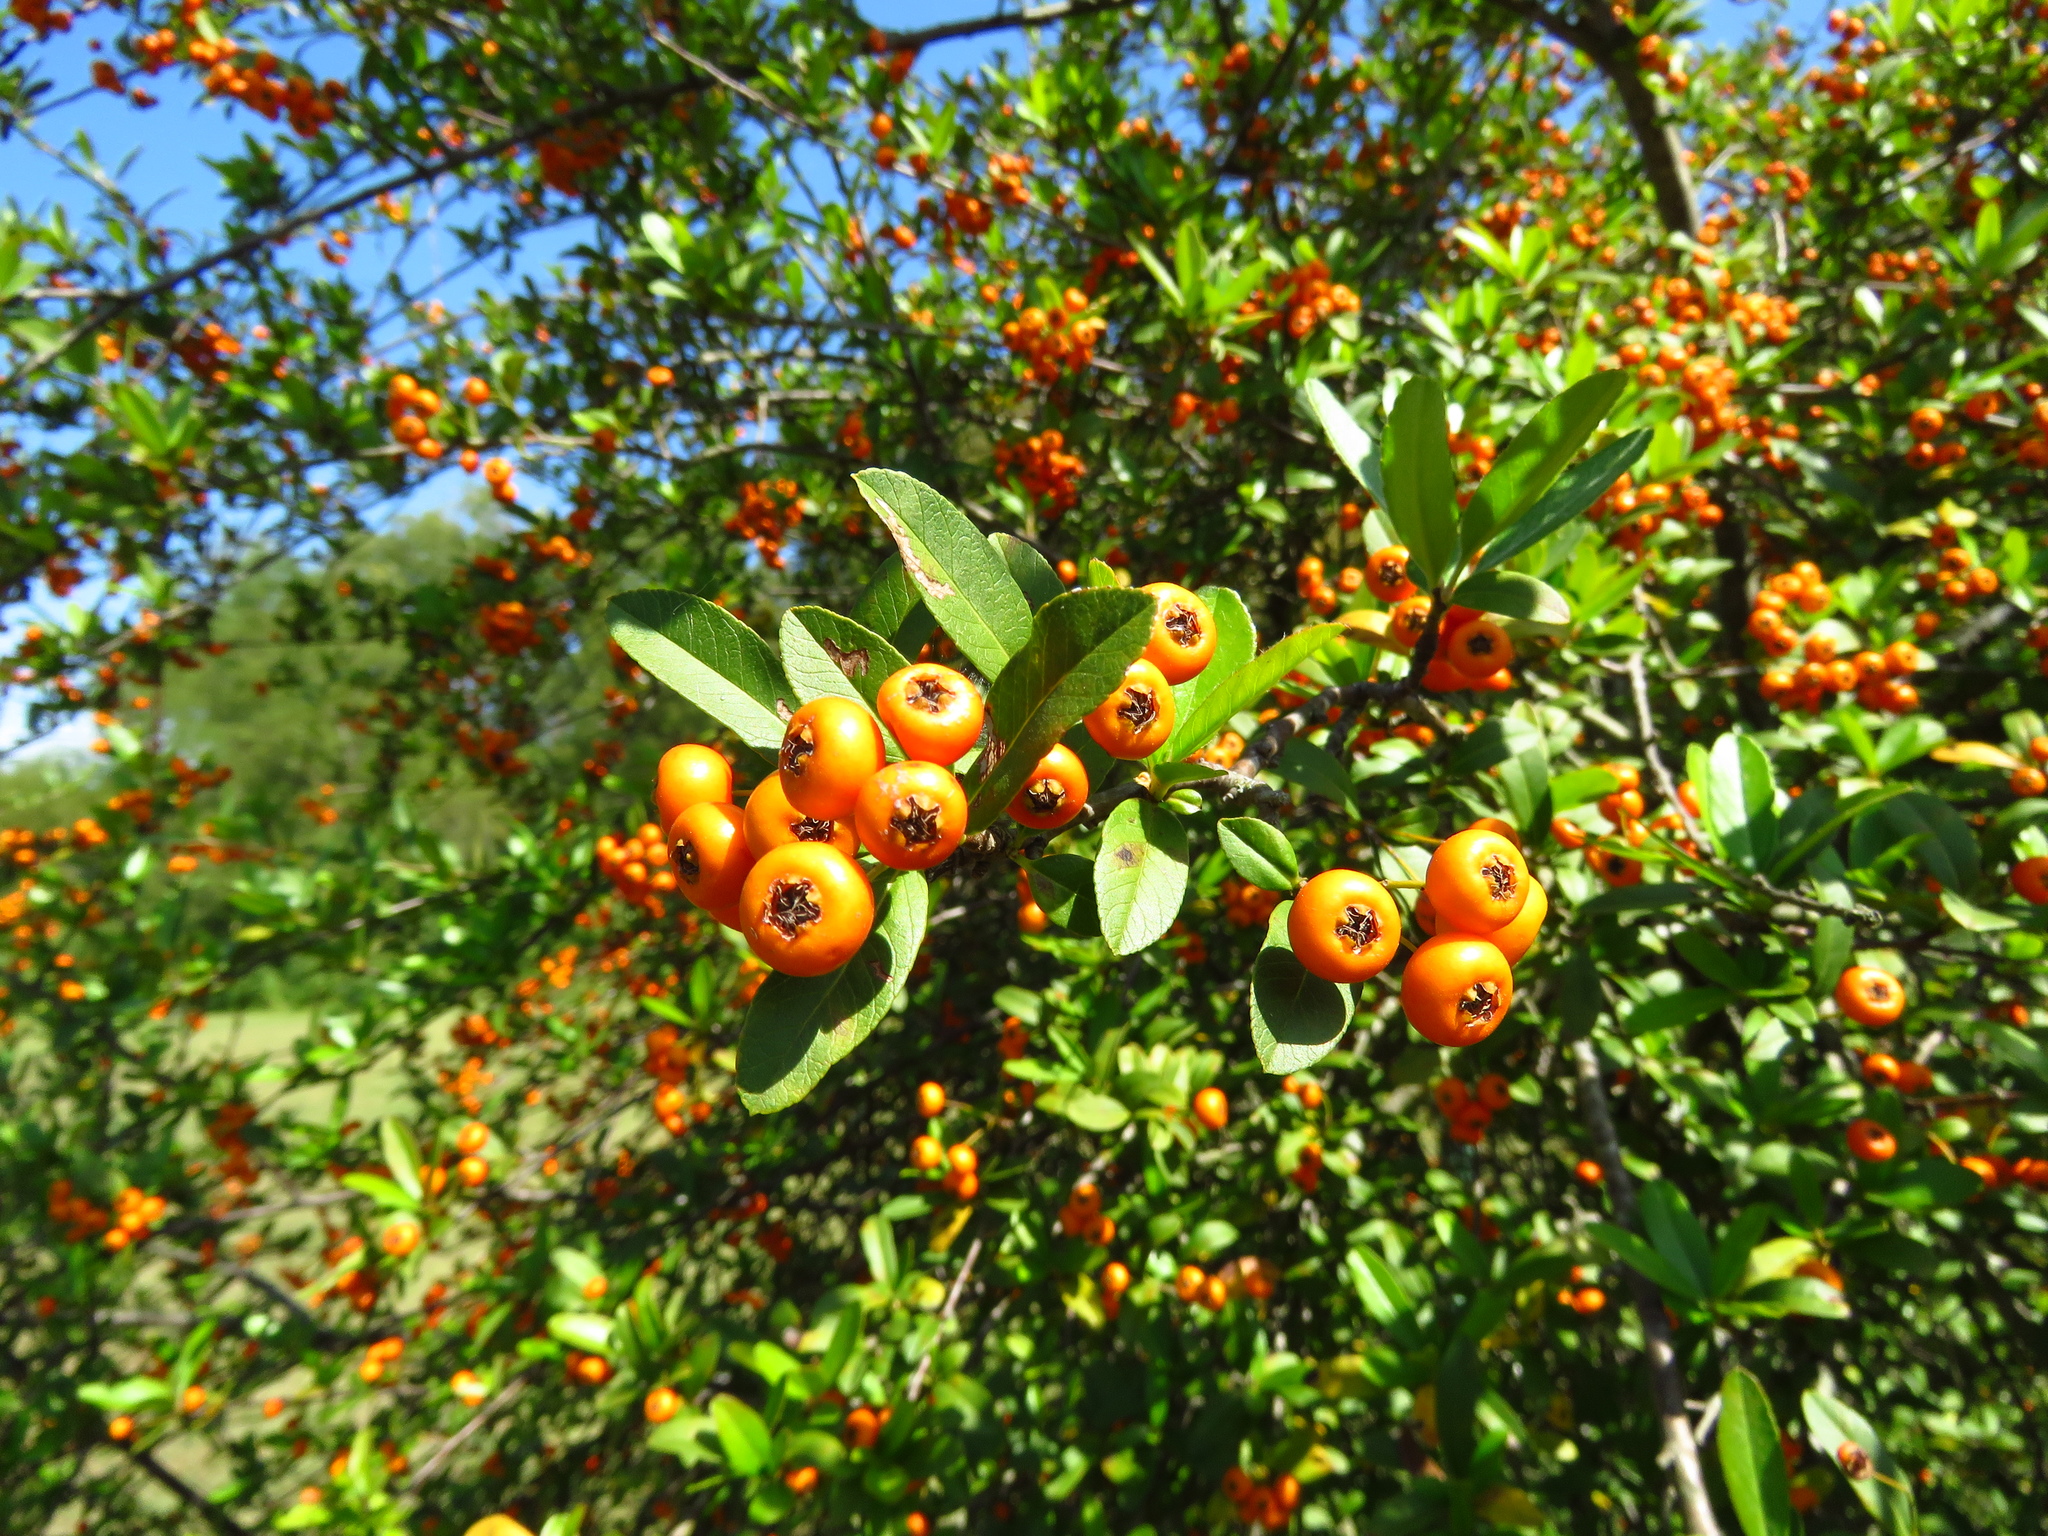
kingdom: Plantae
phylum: Tracheophyta
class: Magnoliopsida
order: Rosales
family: Rosaceae
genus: Pyracantha
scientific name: Pyracantha koidzumii
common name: Formosa firethorn
